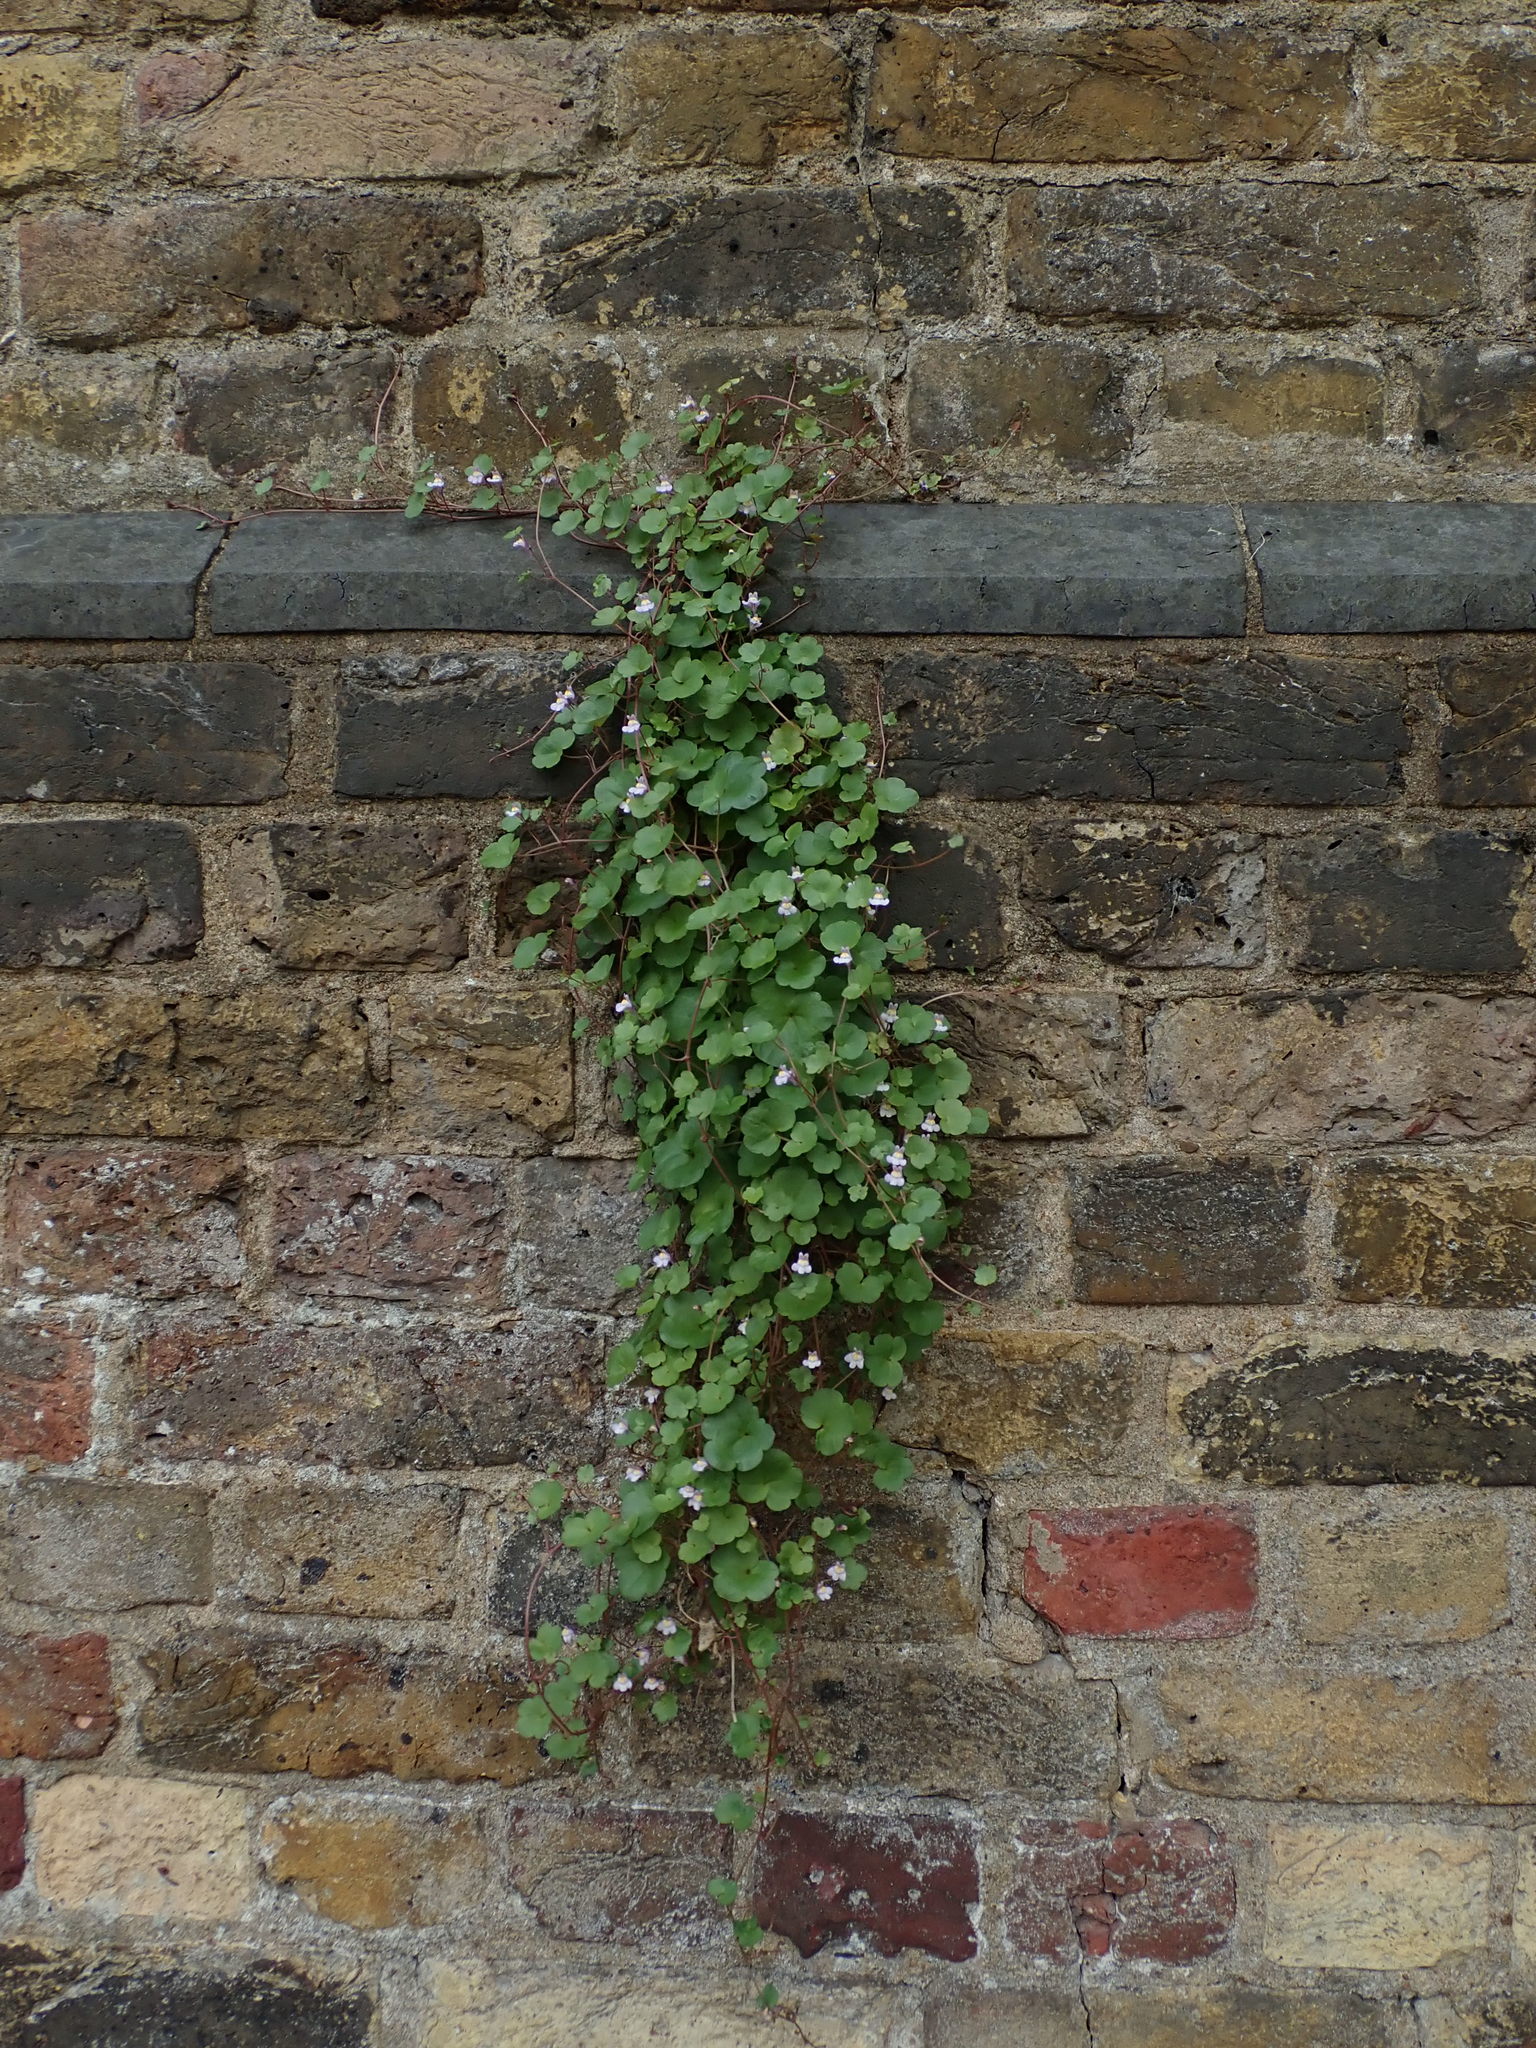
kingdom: Plantae
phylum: Tracheophyta
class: Magnoliopsida
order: Lamiales
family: Plantaginaceae
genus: Cymbalaria
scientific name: Cymbalaria muralis
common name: Ivy-leaved toadflax
